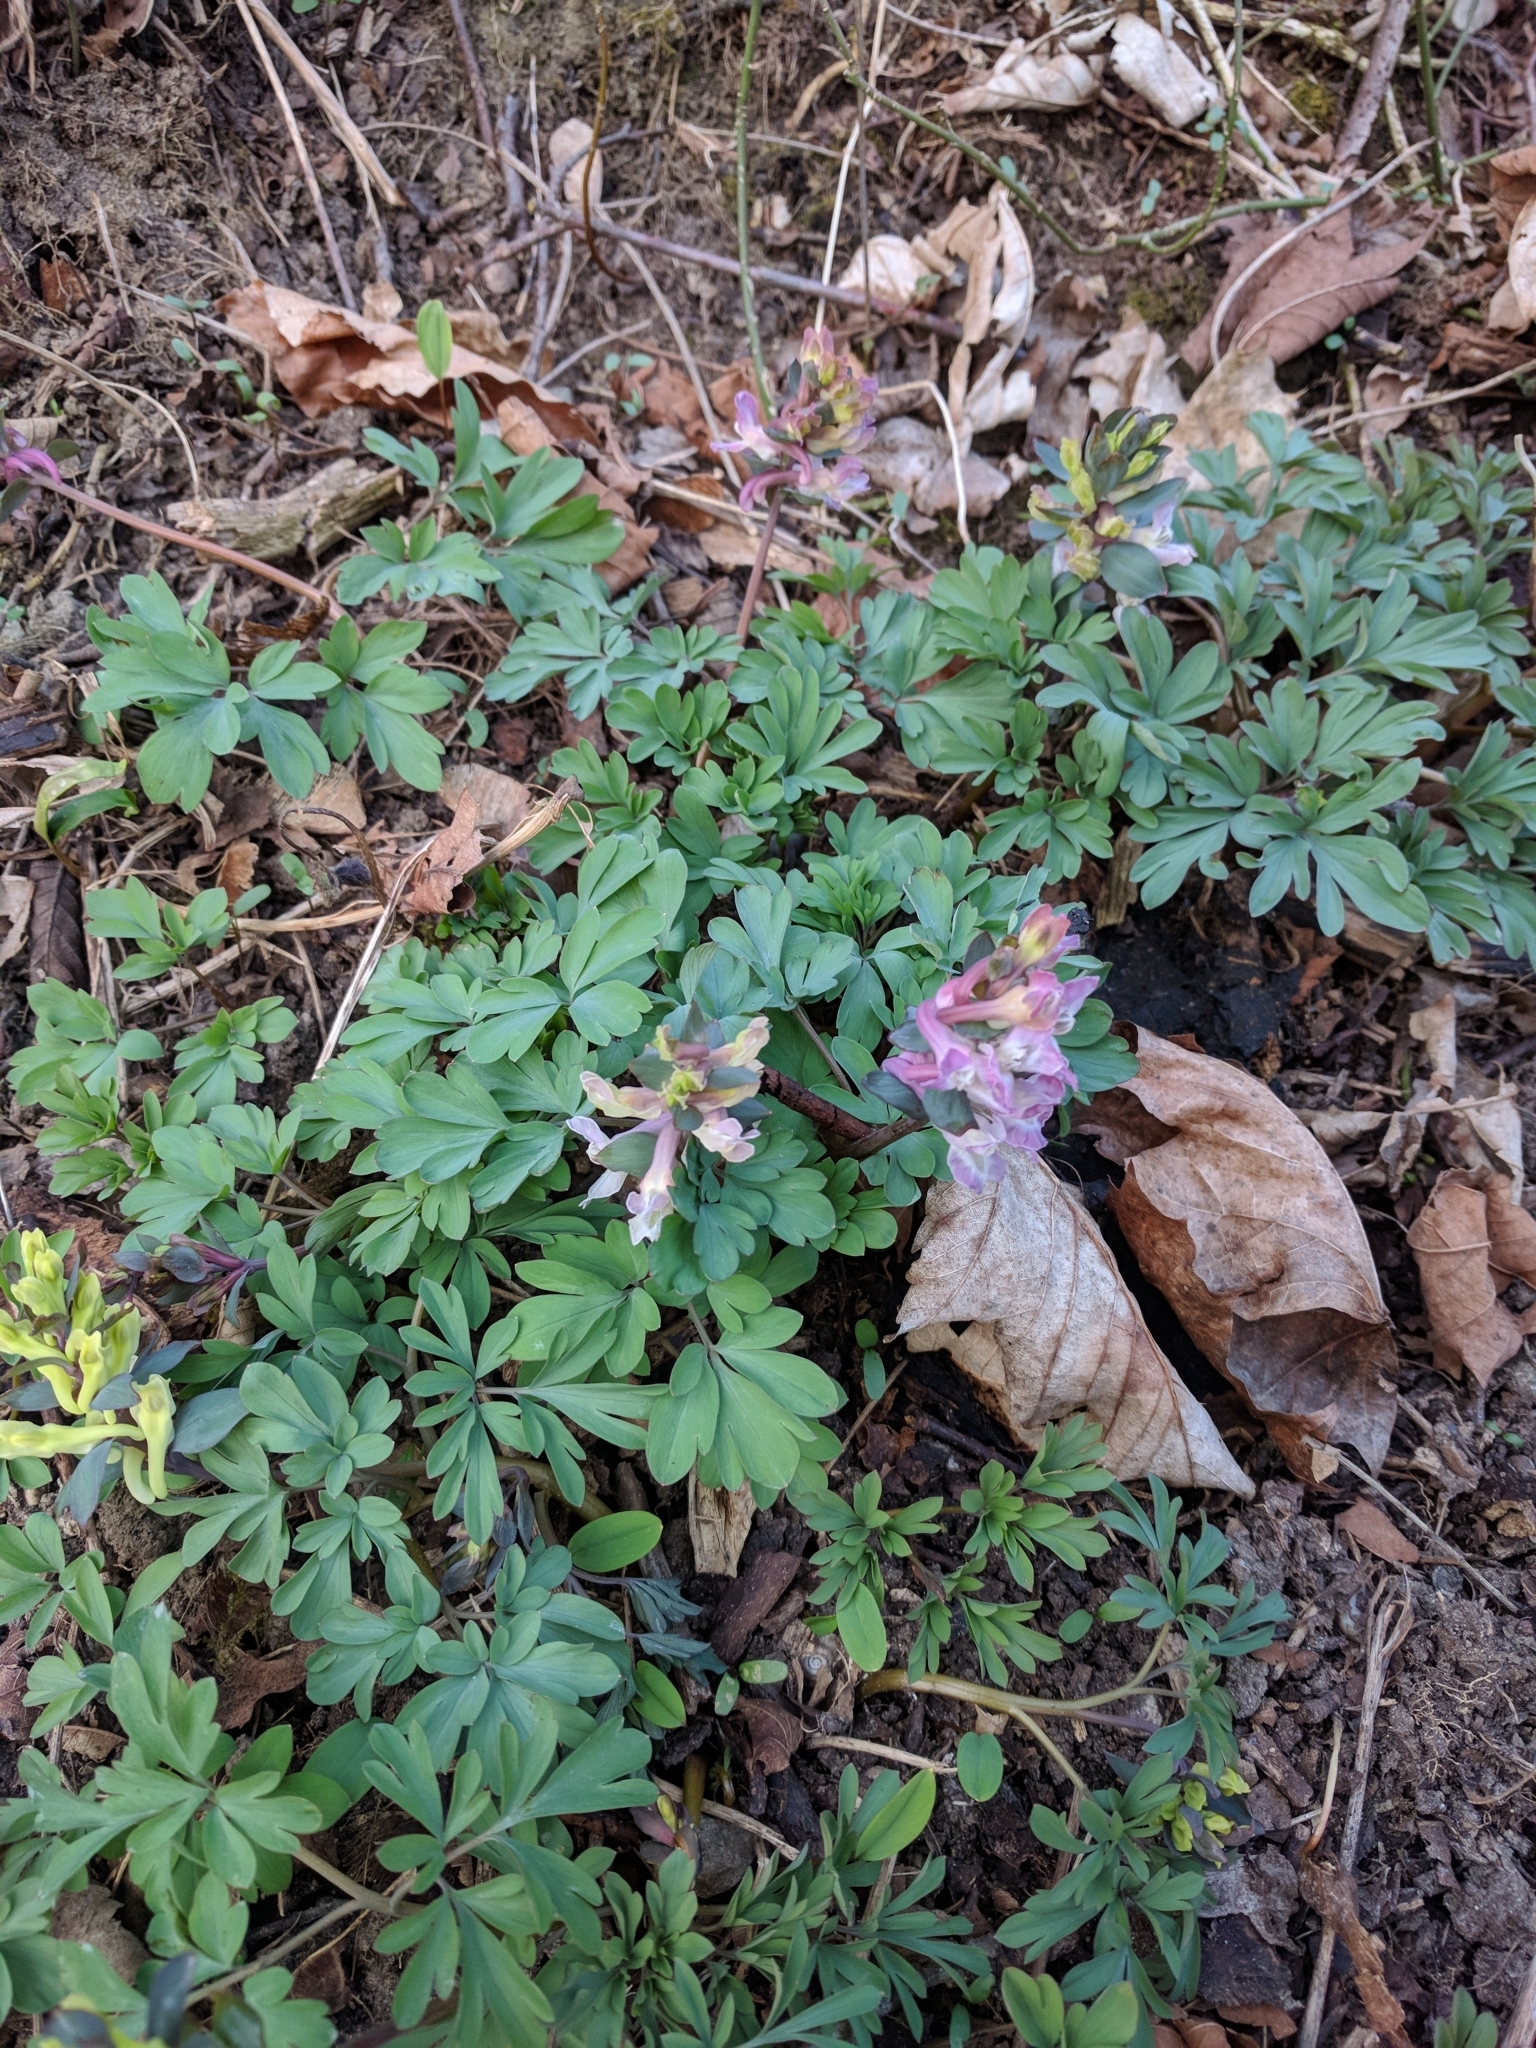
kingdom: Plantae
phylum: Tracheophyta
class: Magnoliopsida
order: Ranunculales
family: Papaveraceae
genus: Corydalis
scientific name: Corydalis cava
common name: Hollowroot
